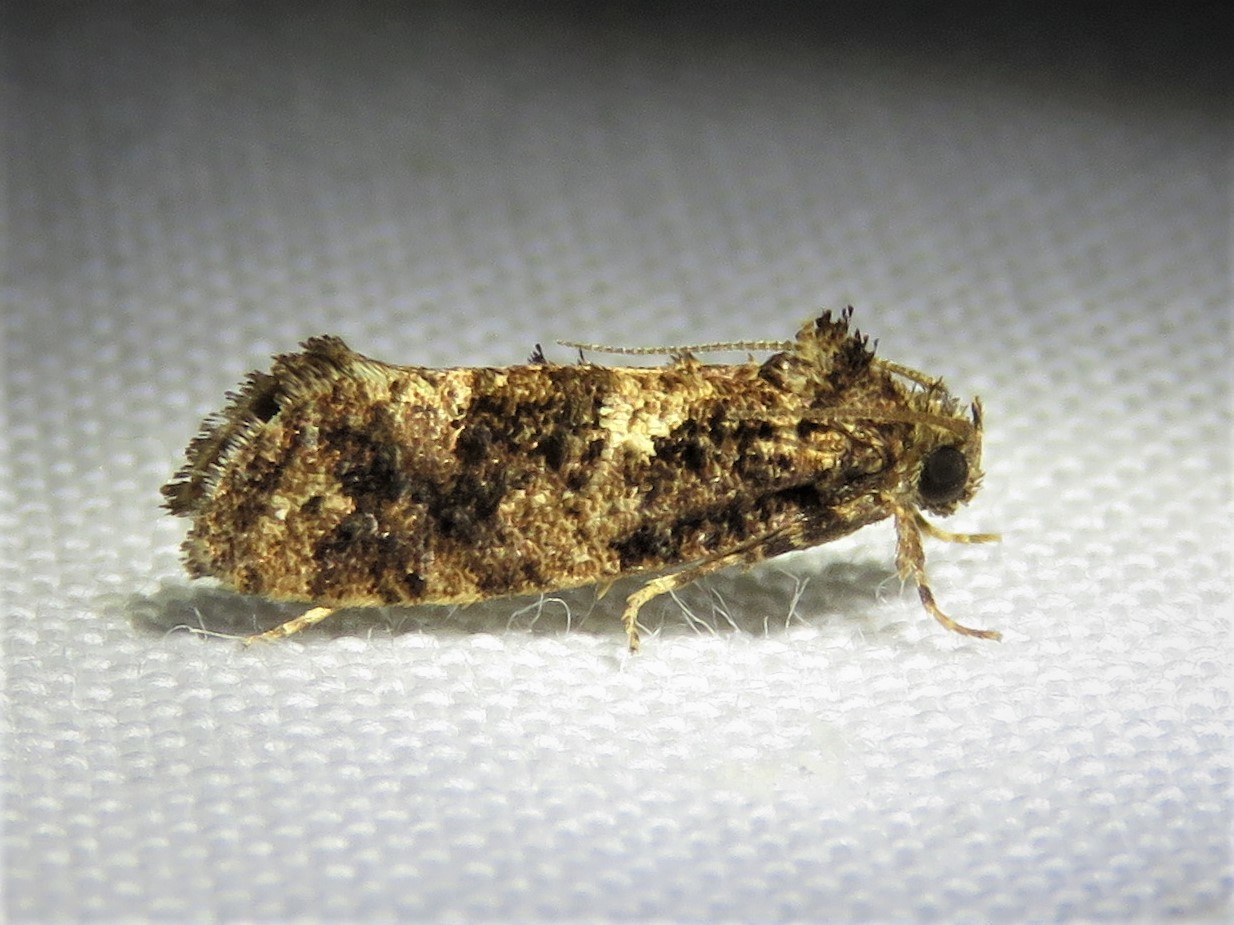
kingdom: Animalia
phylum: Arthropoda
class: Insecta
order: Lepidoptera
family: Tineidae
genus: Acrolophus
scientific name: Acrolophus cressoni
